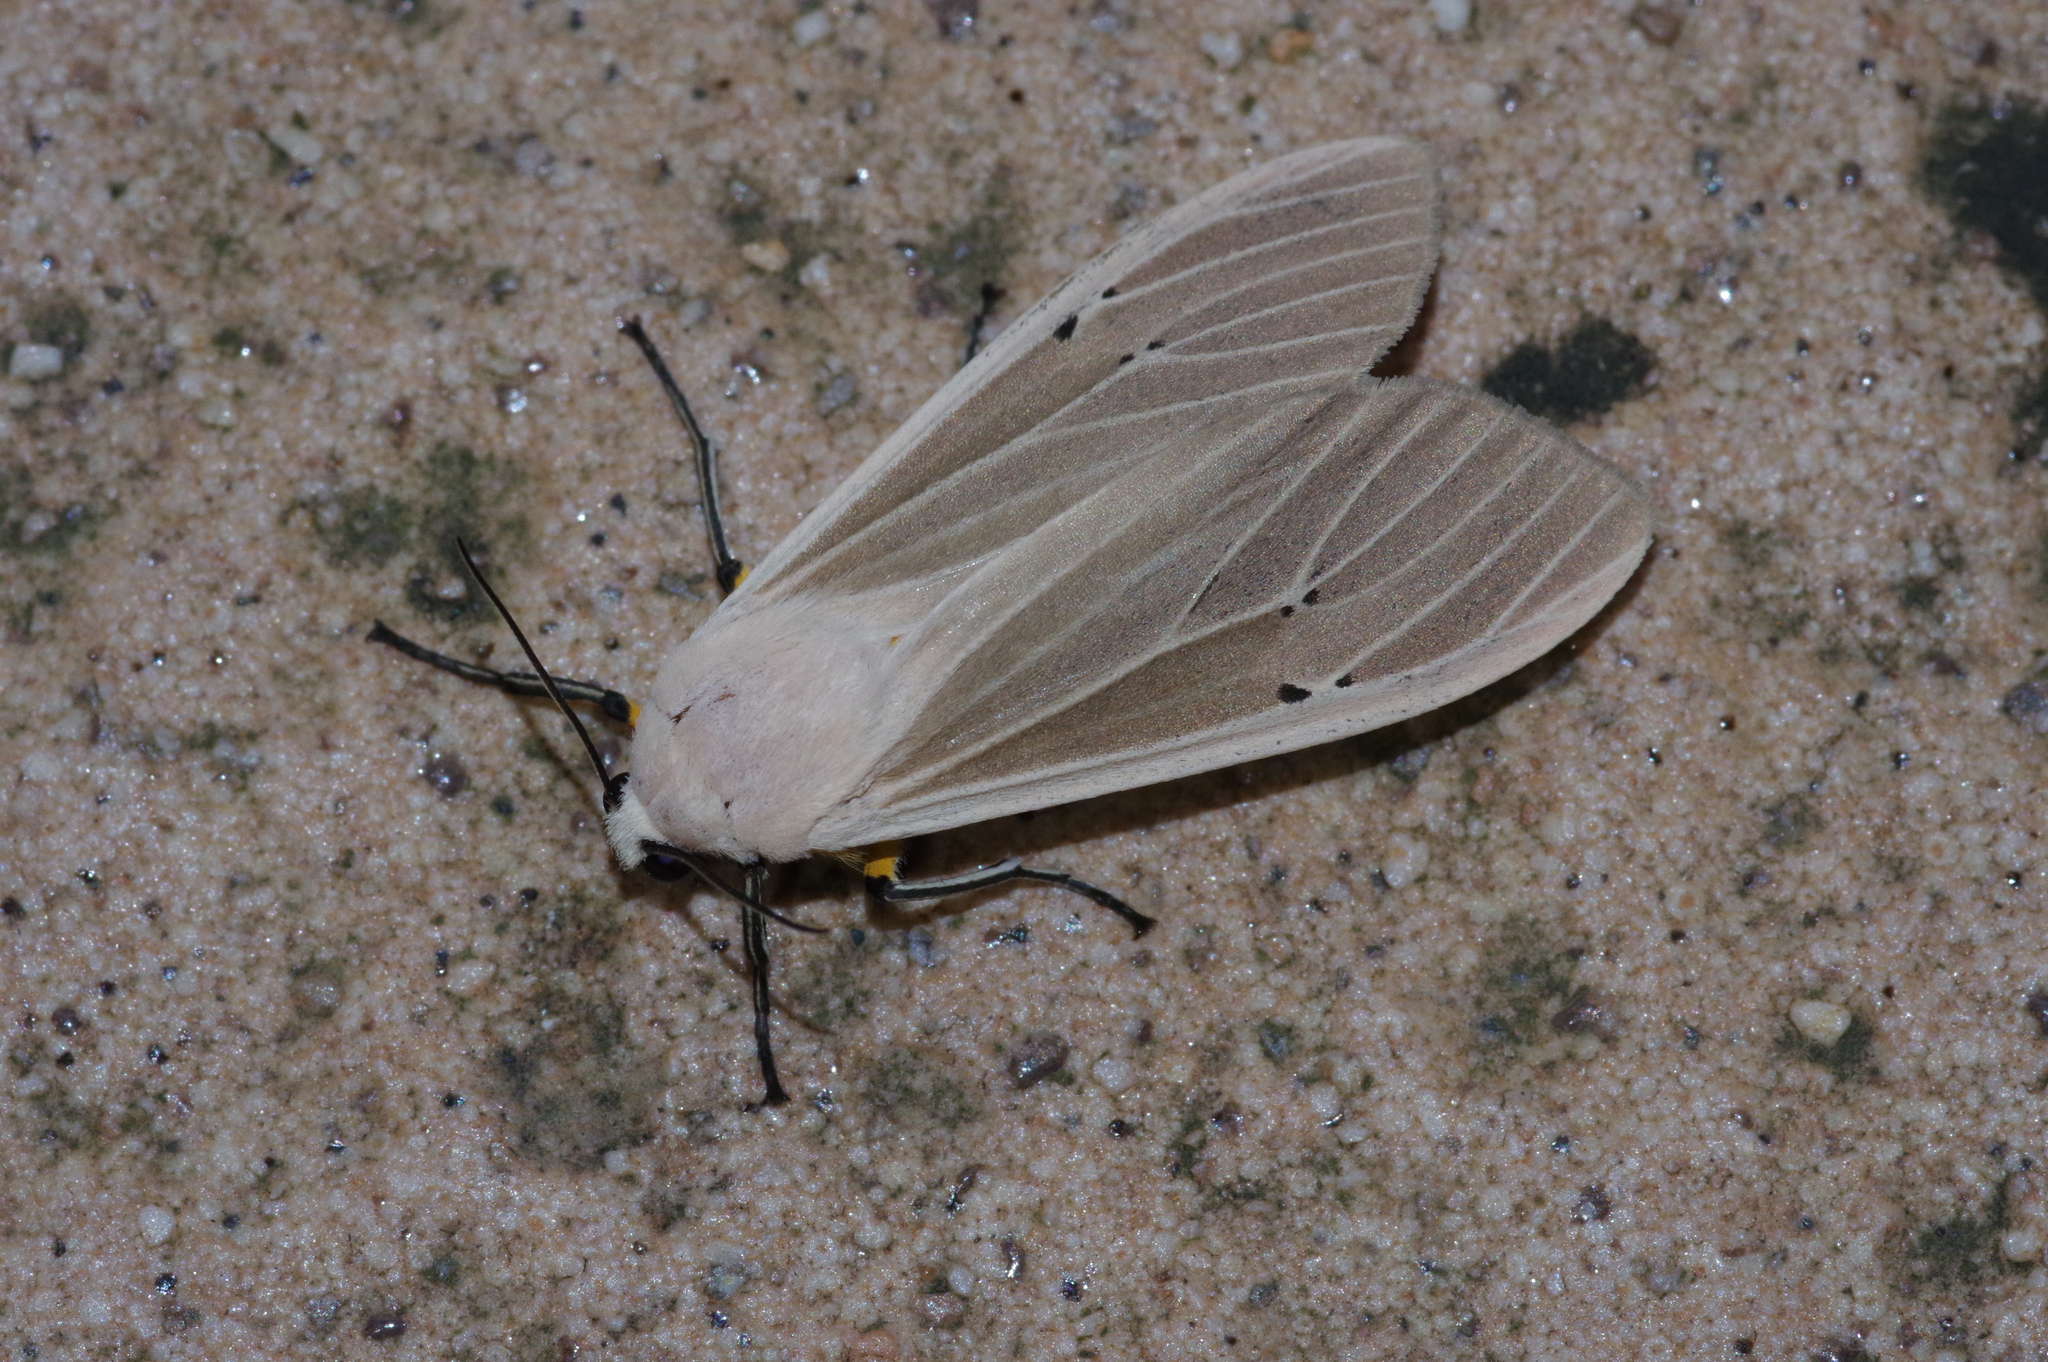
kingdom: Animalia
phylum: Arthropoda
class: Insecta
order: Lepidoptera
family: Erebidae
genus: Creatonotos
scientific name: Creatonotos transiens
